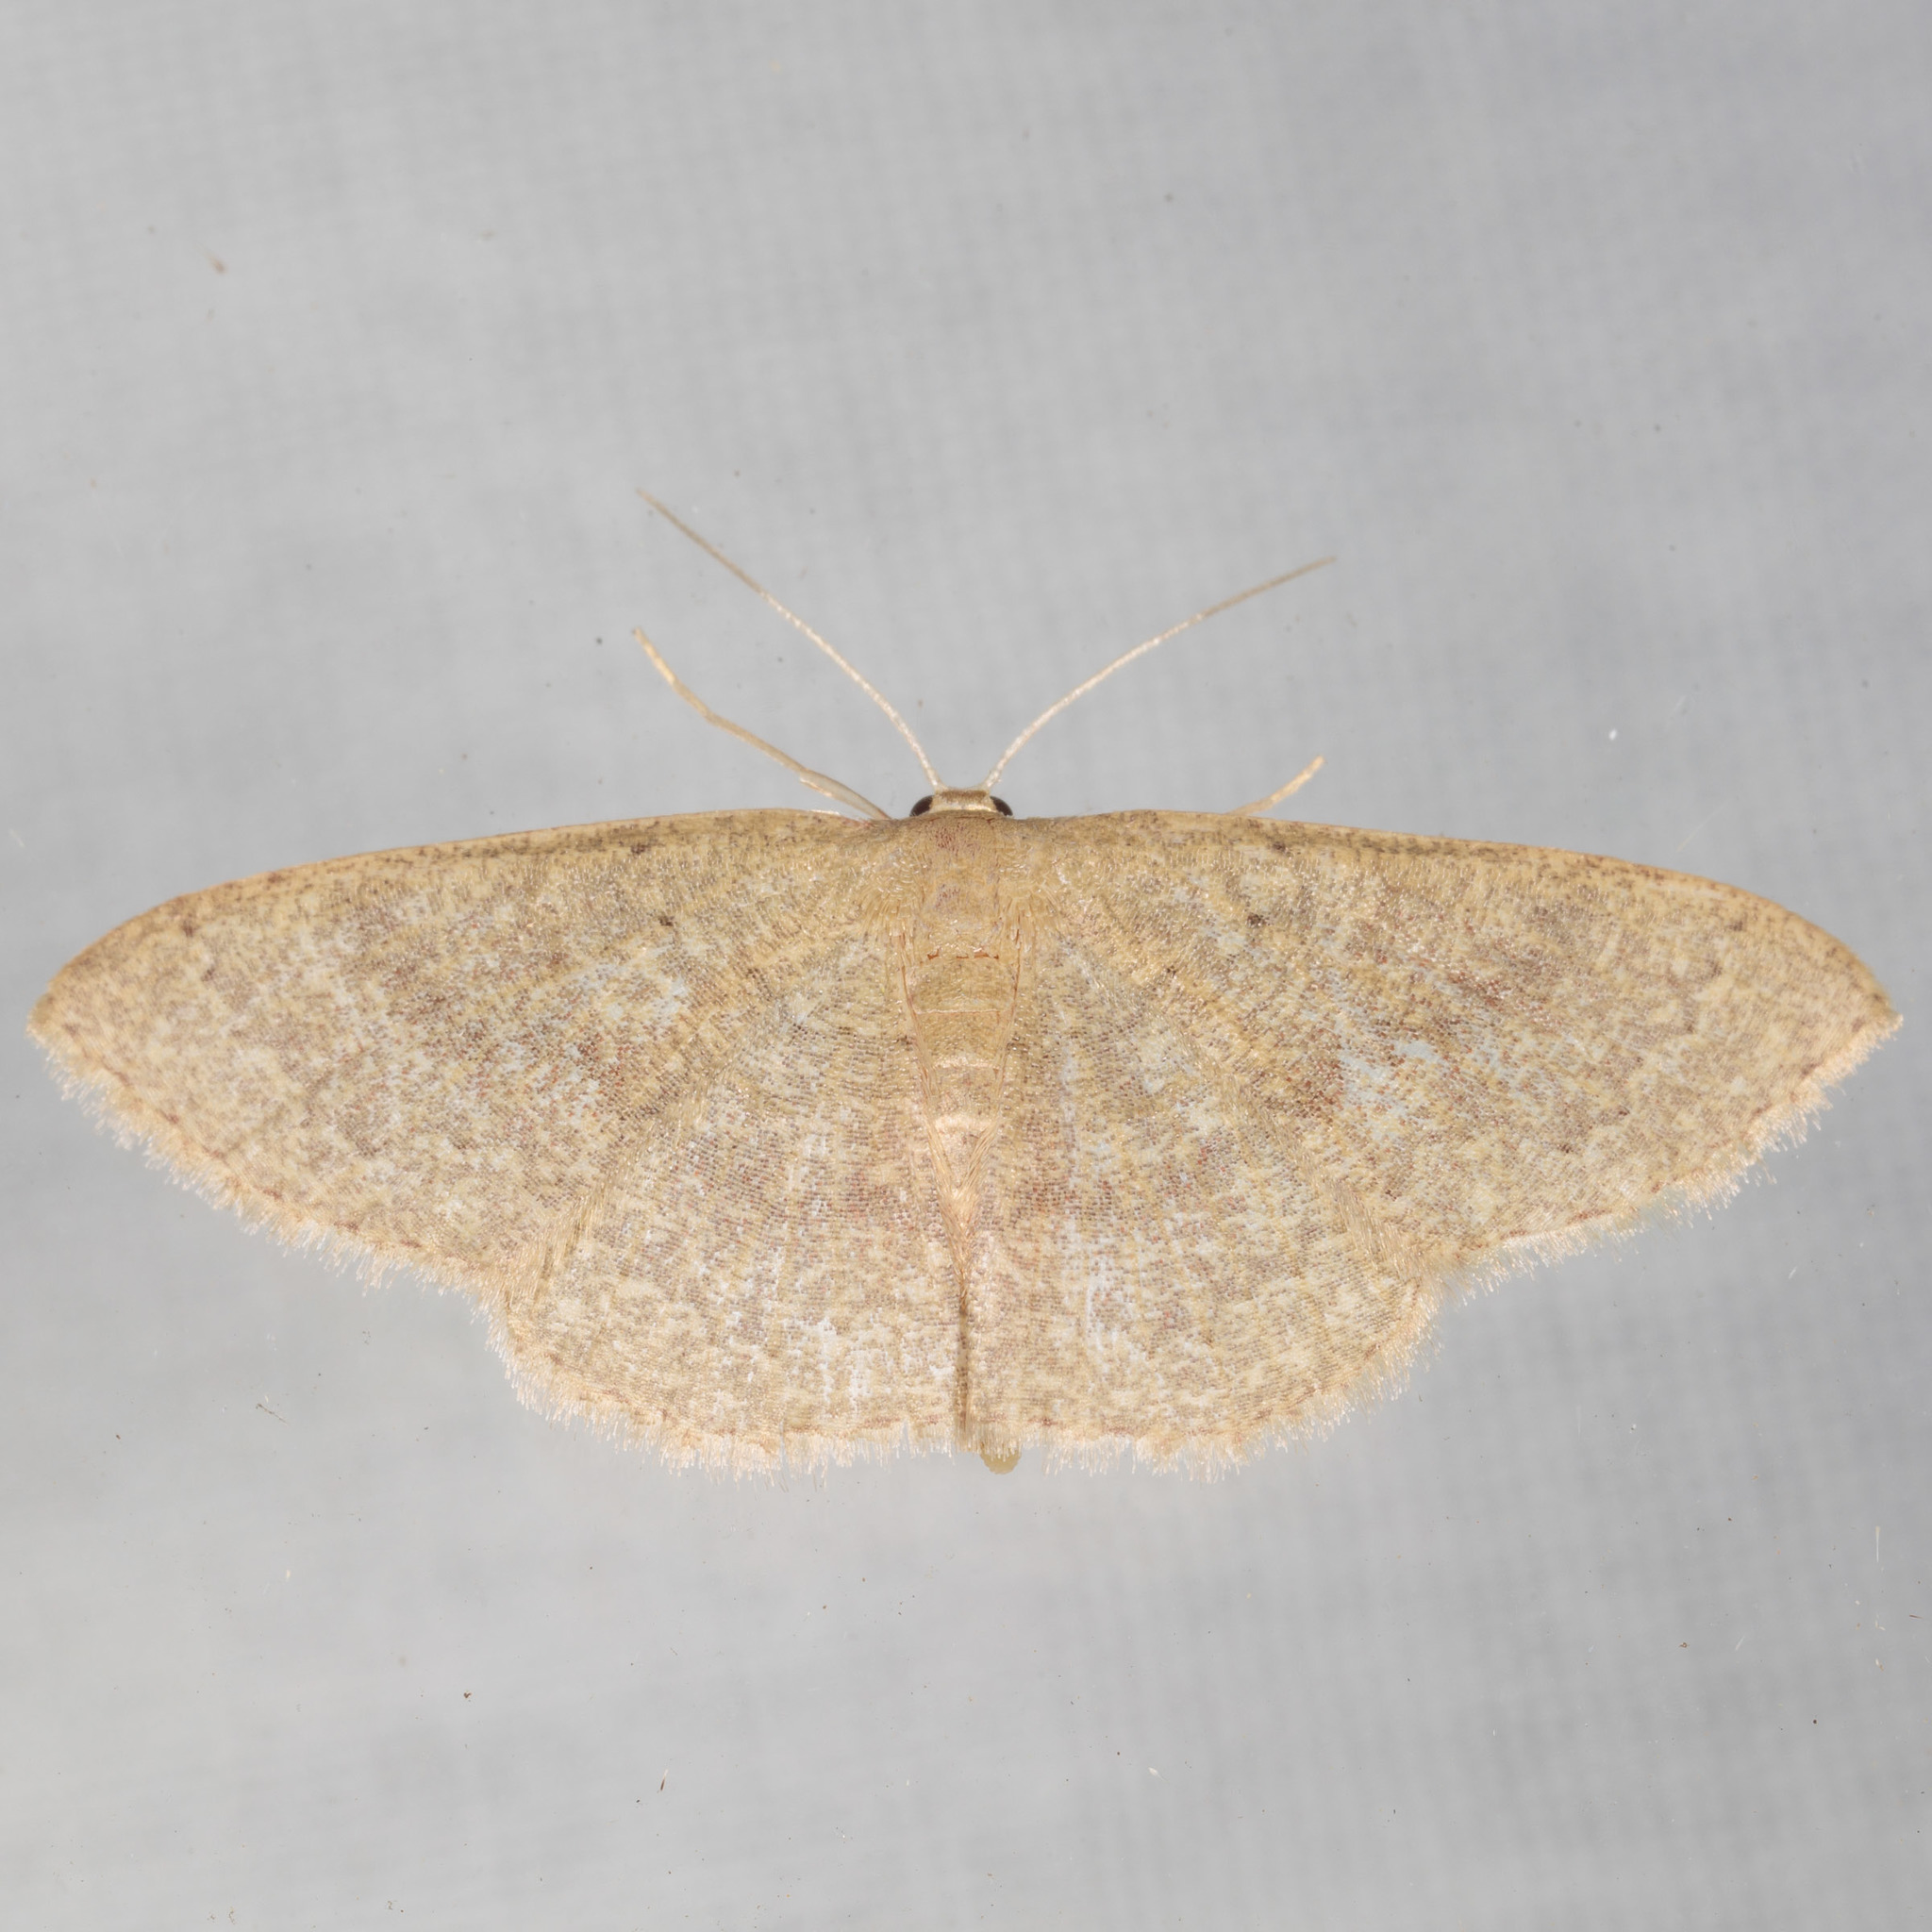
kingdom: Animalia
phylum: Arthropoda
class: Insecta
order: Lepidoptera
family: Geometridae
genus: Pleuroprucha
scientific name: Pleuroprucha insulsaria
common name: Common tan wave
